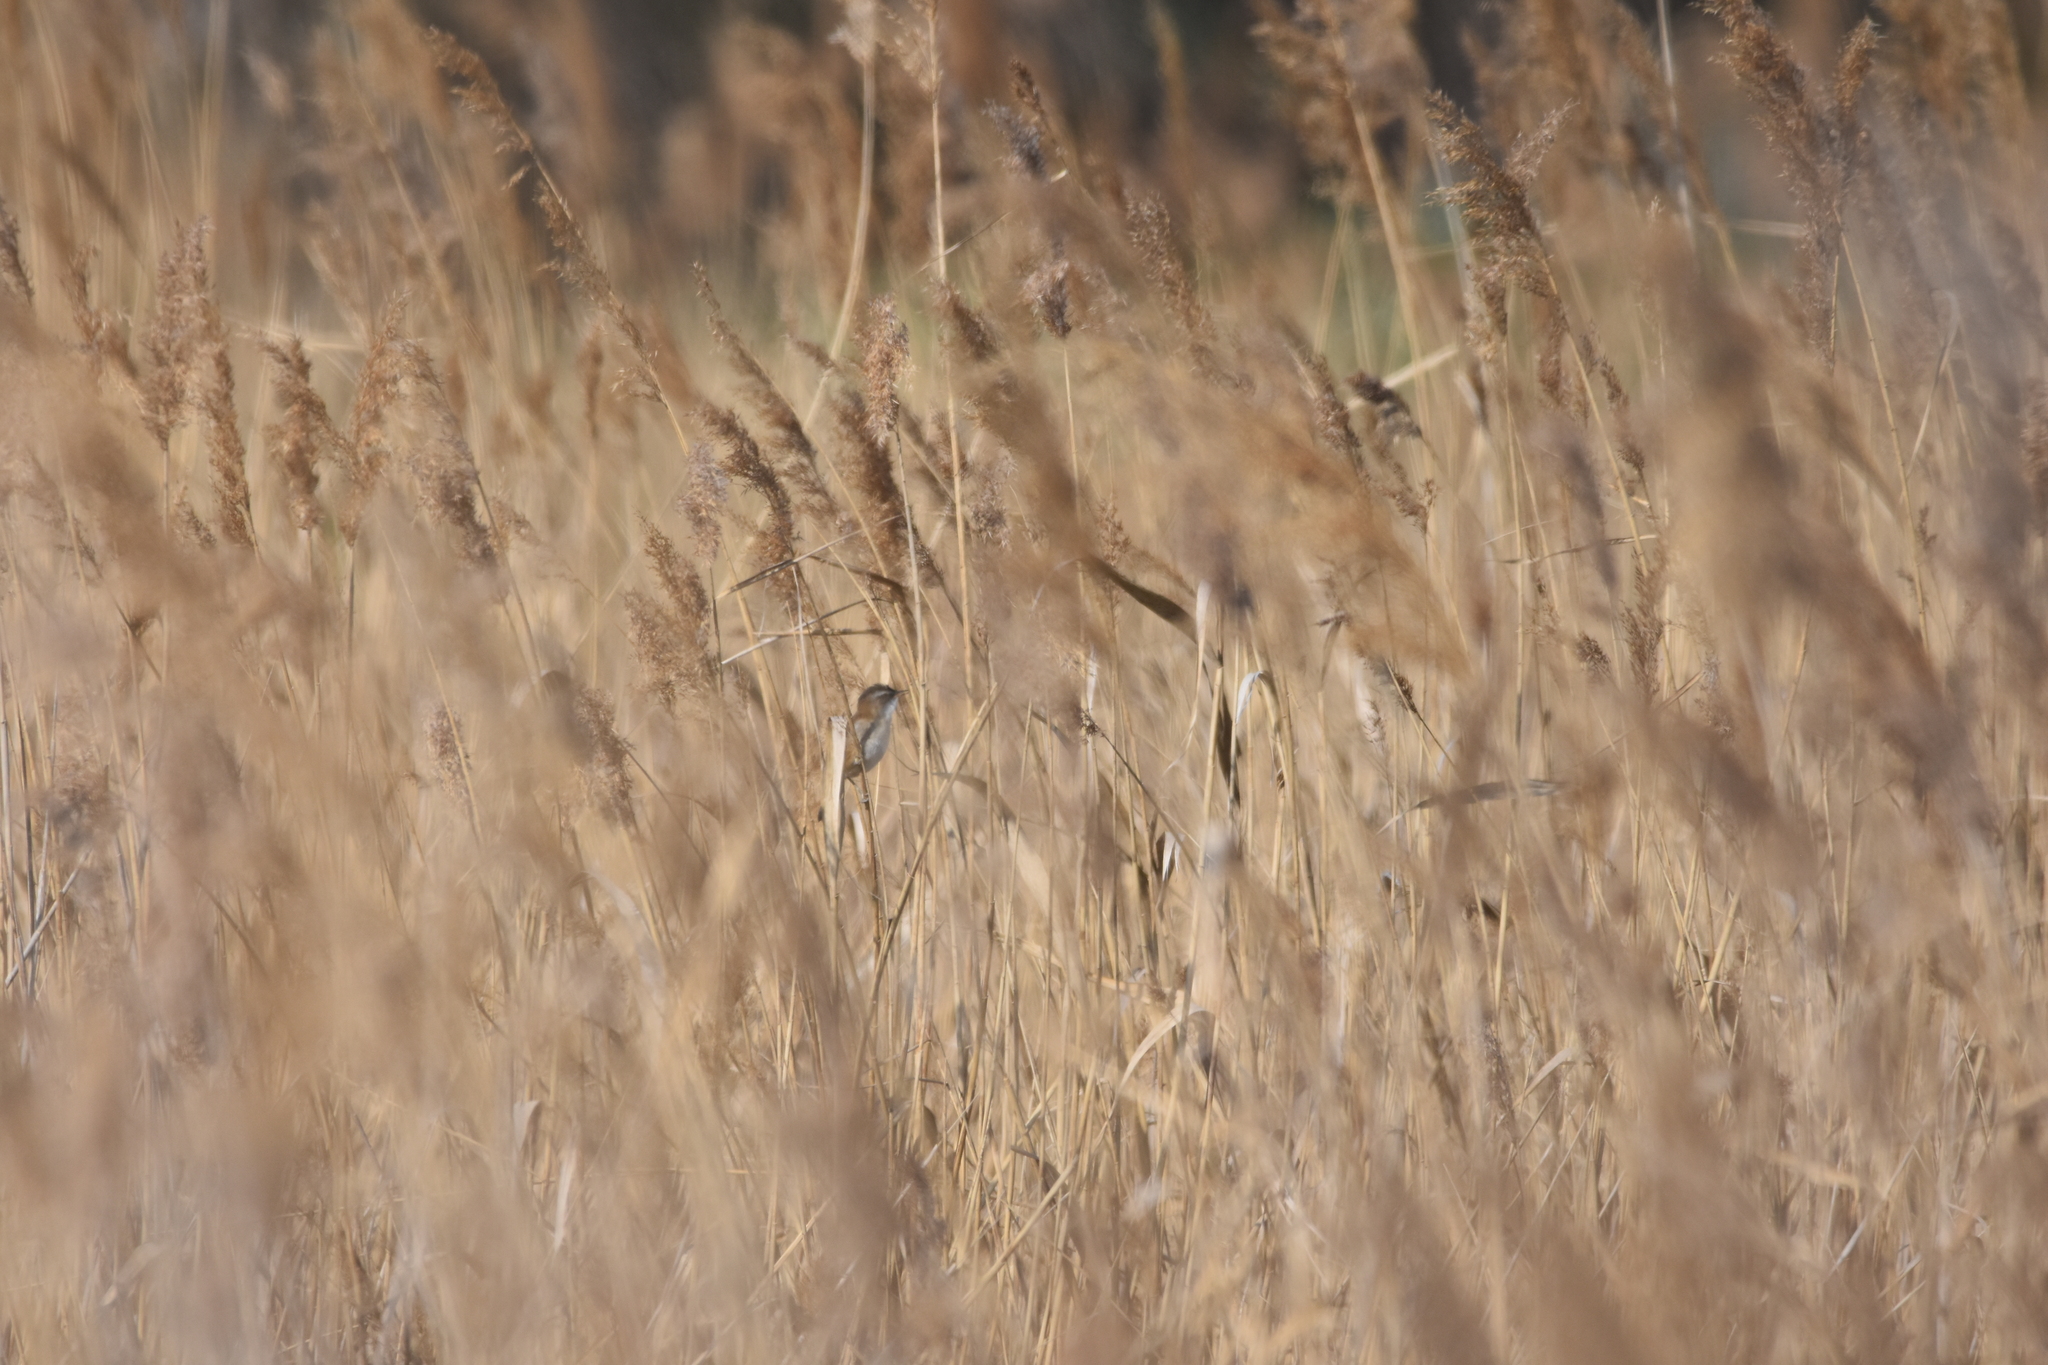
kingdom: Animalia
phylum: Chordata
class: Aves
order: Passeriformes
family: Acrocephalidae
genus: Acrocephalus
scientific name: Acrocephalus melanopogon
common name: Moustached warbler
